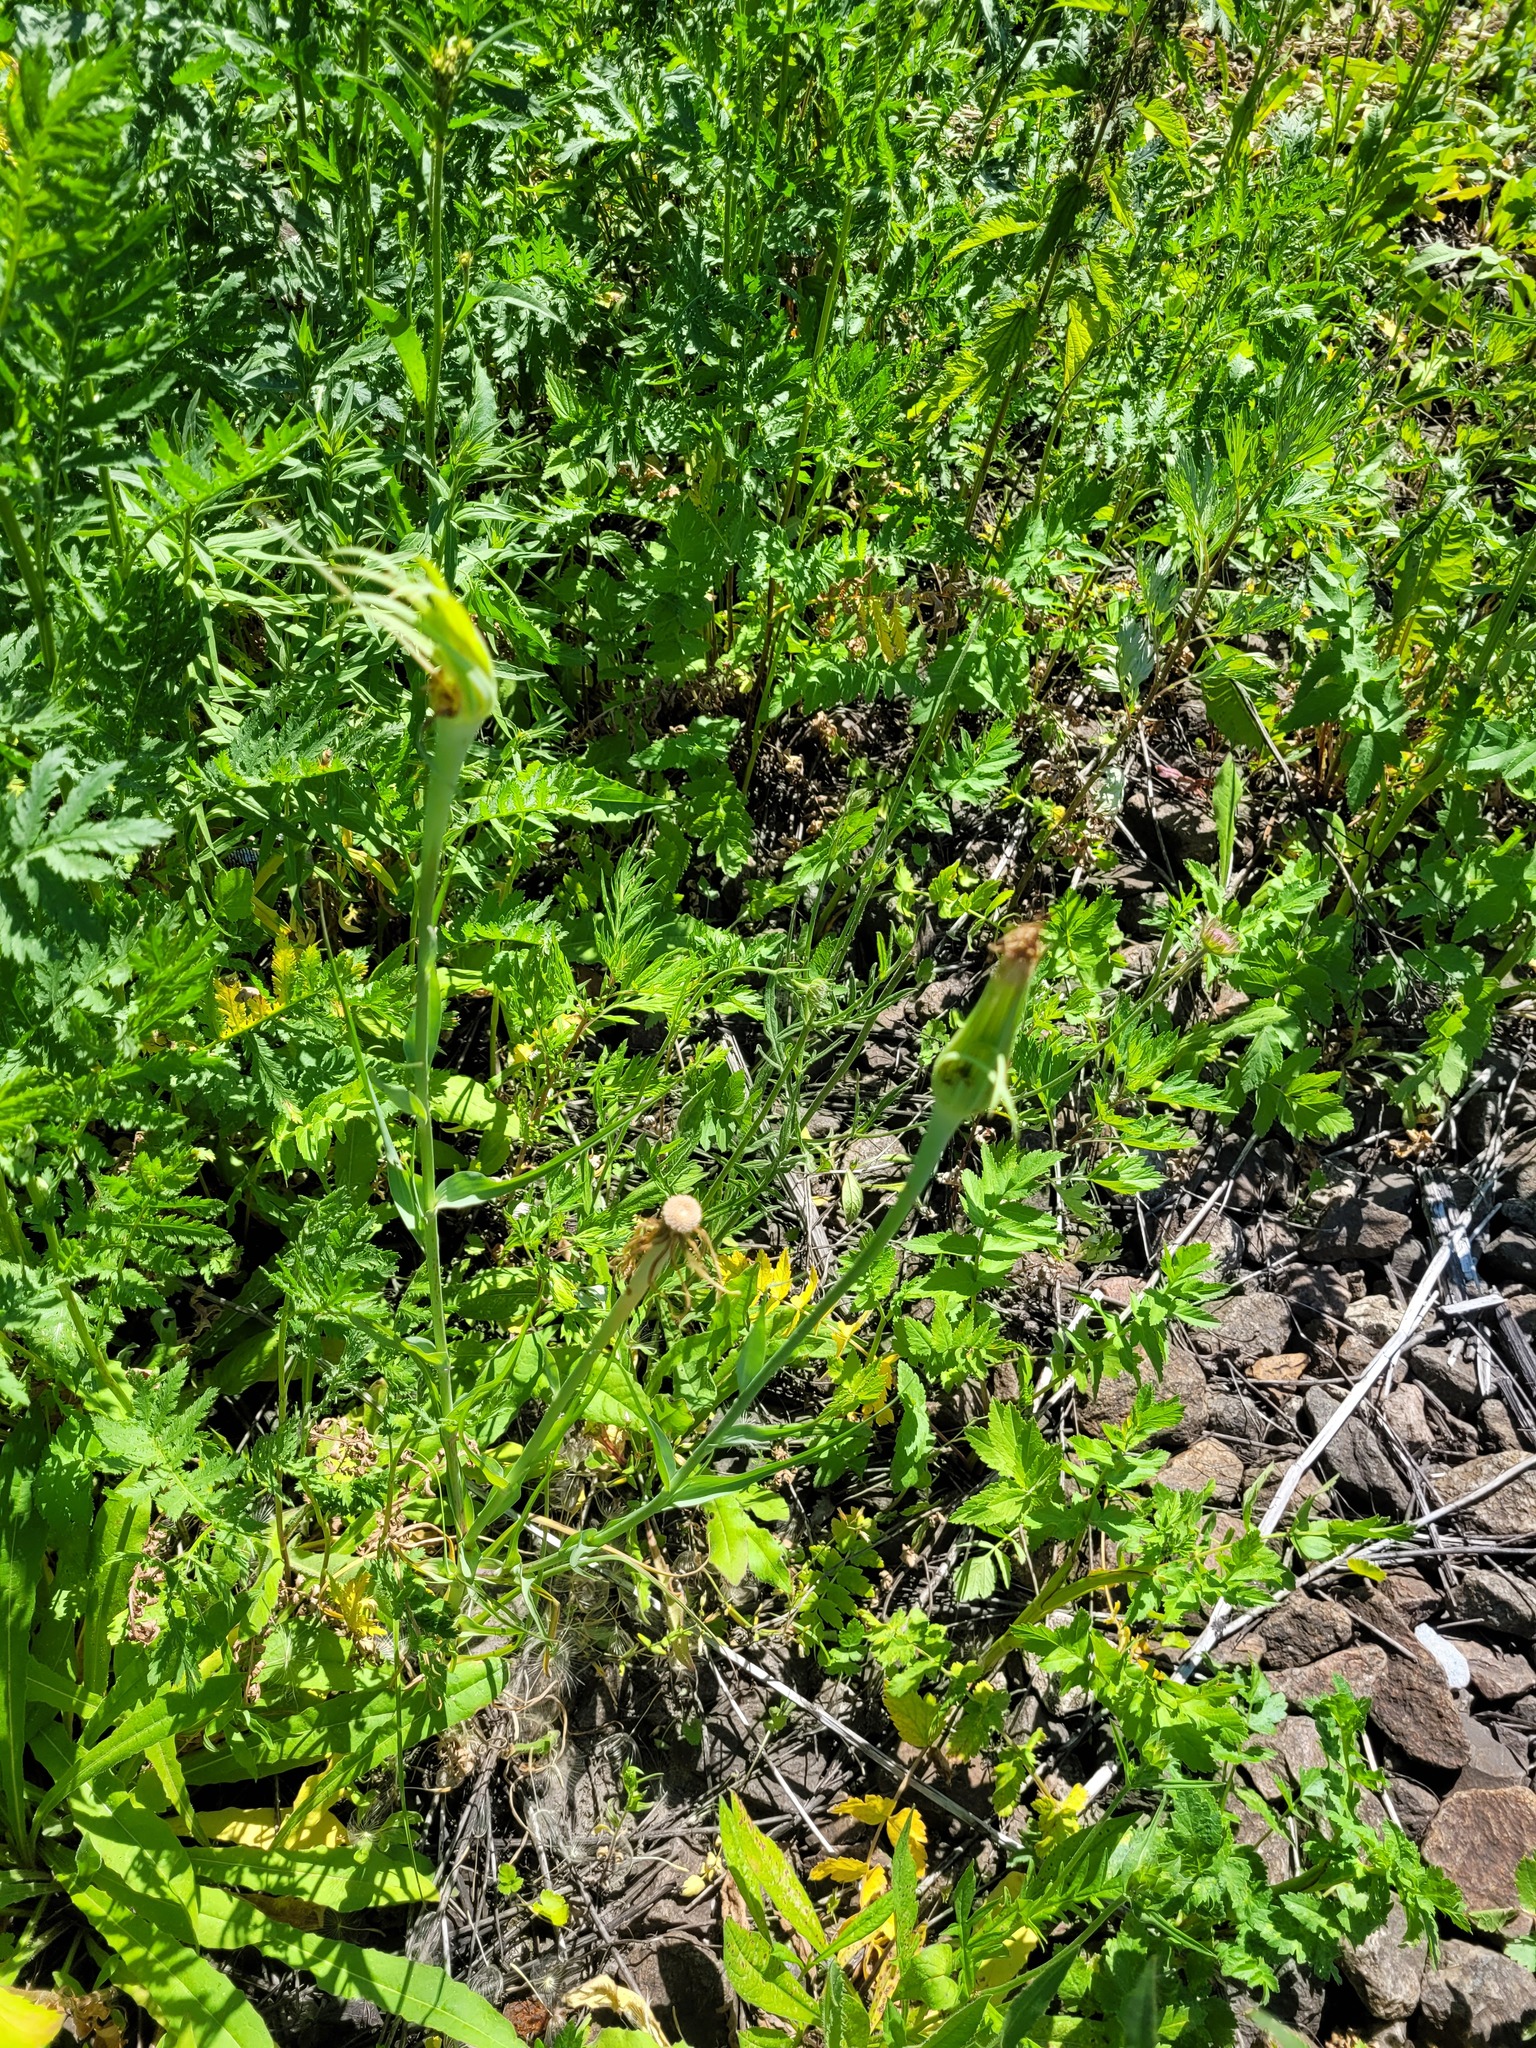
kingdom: Plantae
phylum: Tracheophyta
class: Magnoliopsida
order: Asterales
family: Asteraceae
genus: Tragopogon
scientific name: Tragopogon dubius
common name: Yellow salsify
